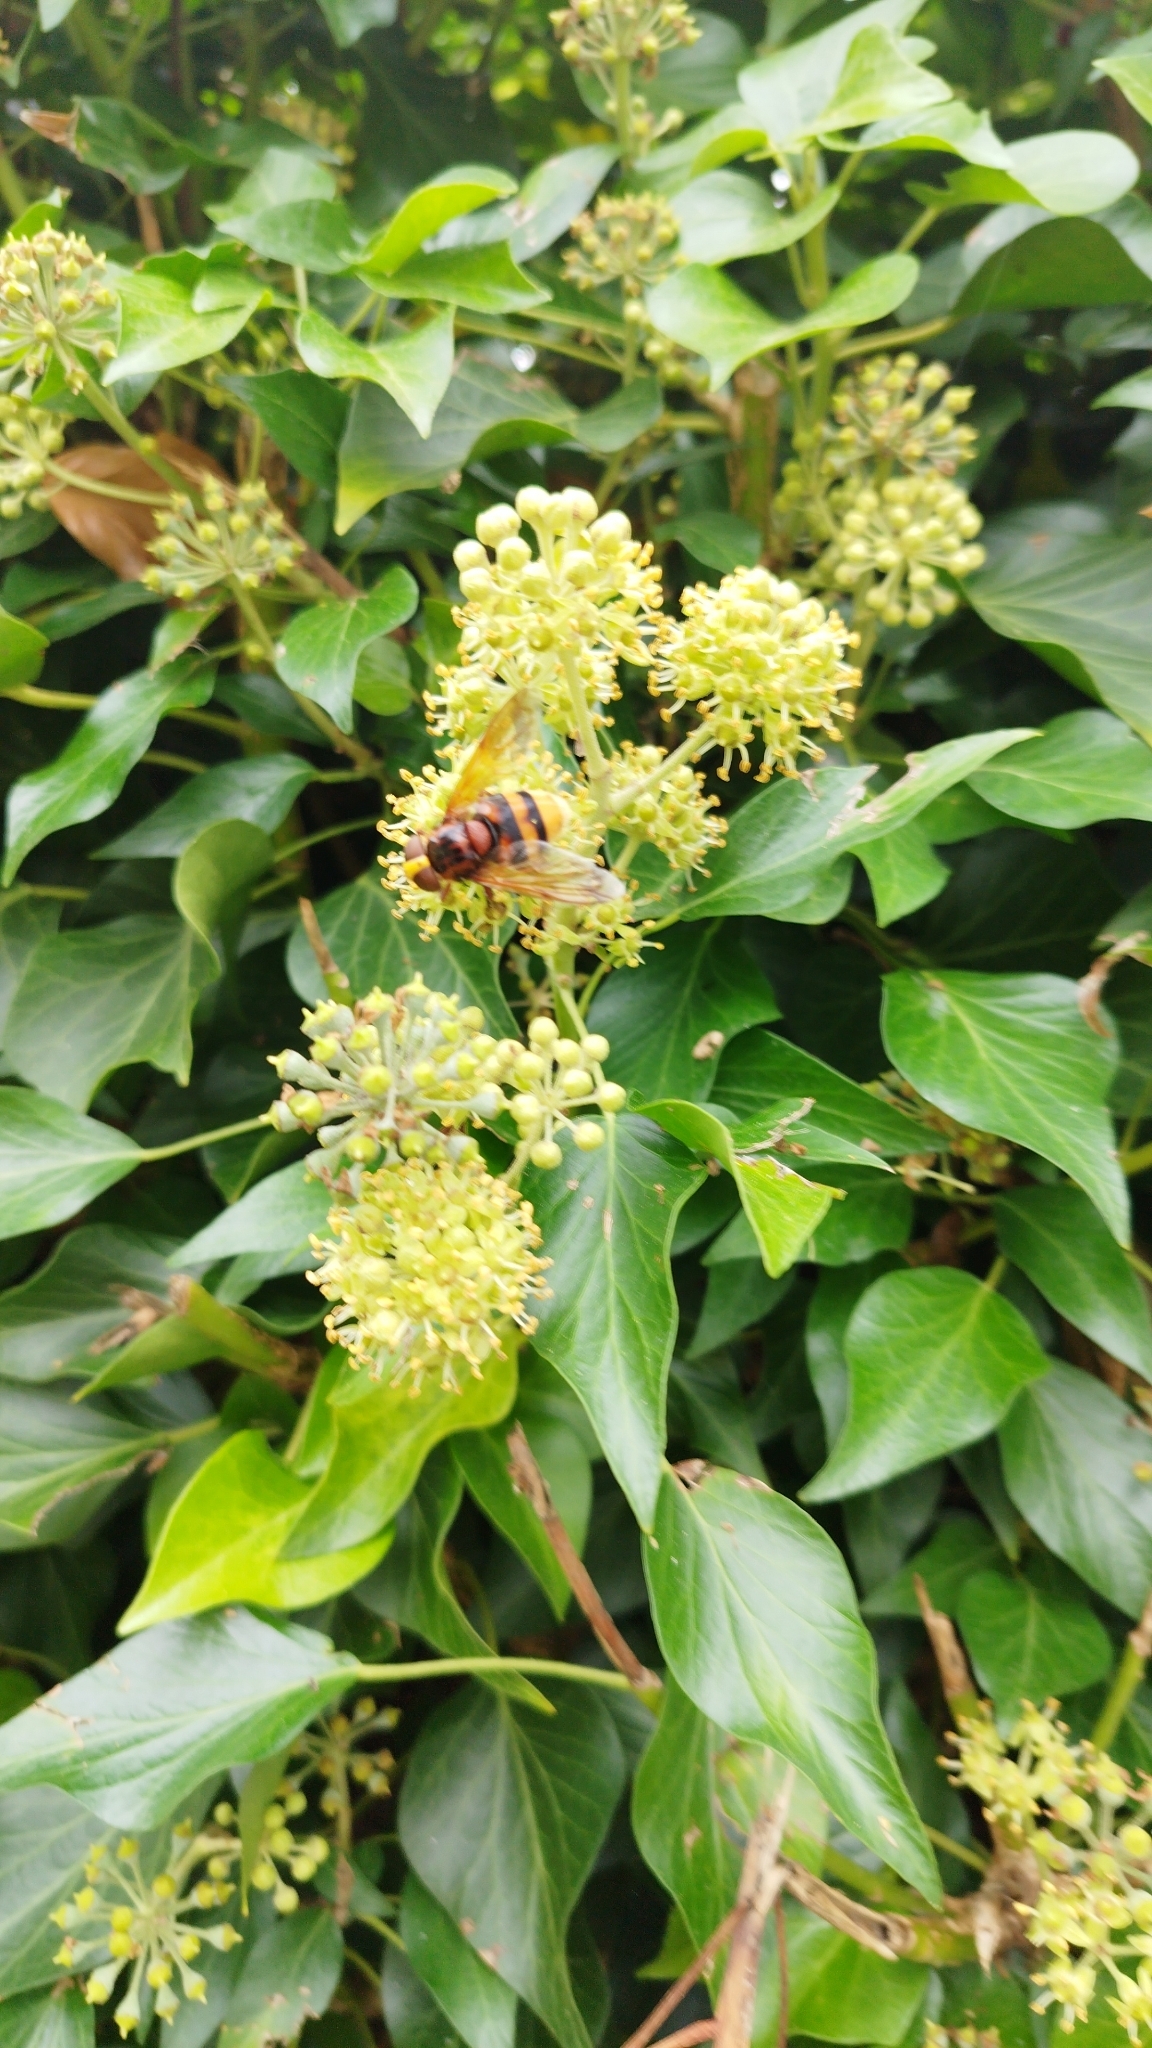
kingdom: Animalia
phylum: Arthropoda
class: Insecta
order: Diptera
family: Syrphidae
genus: Volucella
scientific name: Volucella zonaria
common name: Hornet hoverfly
